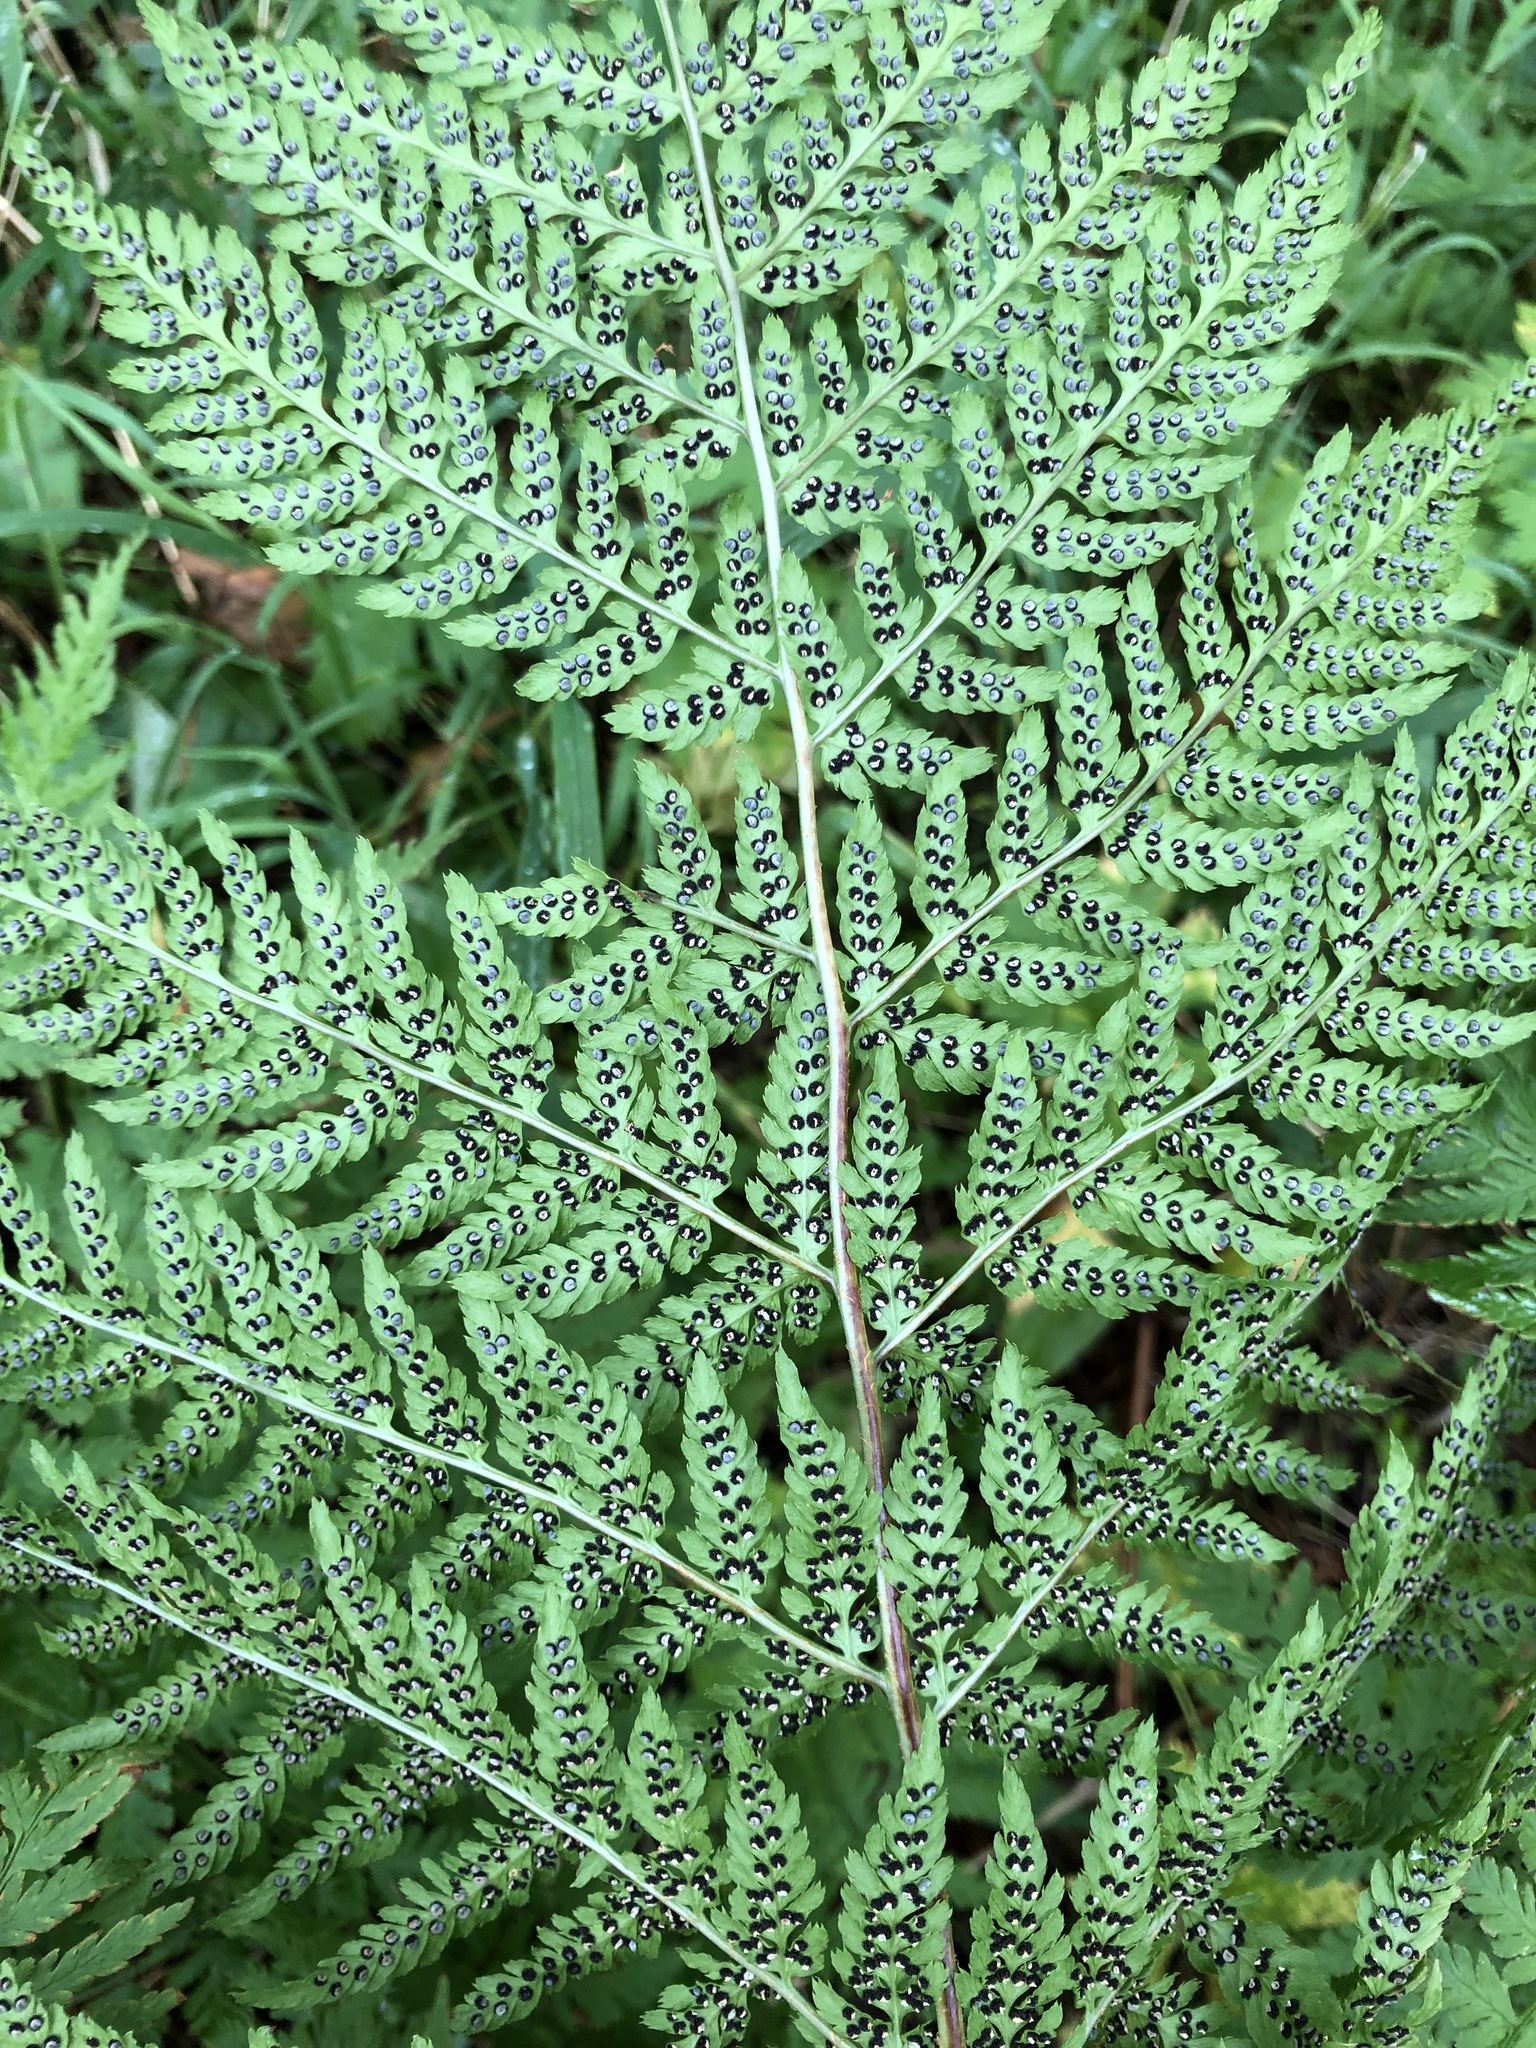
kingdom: Plantae
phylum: Tracheophyta
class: Polypodiopsida
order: Polypodiales
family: Dryopteridaceae
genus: Dryopteris
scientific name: Dryopteris expansa
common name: Northern buckler fern
